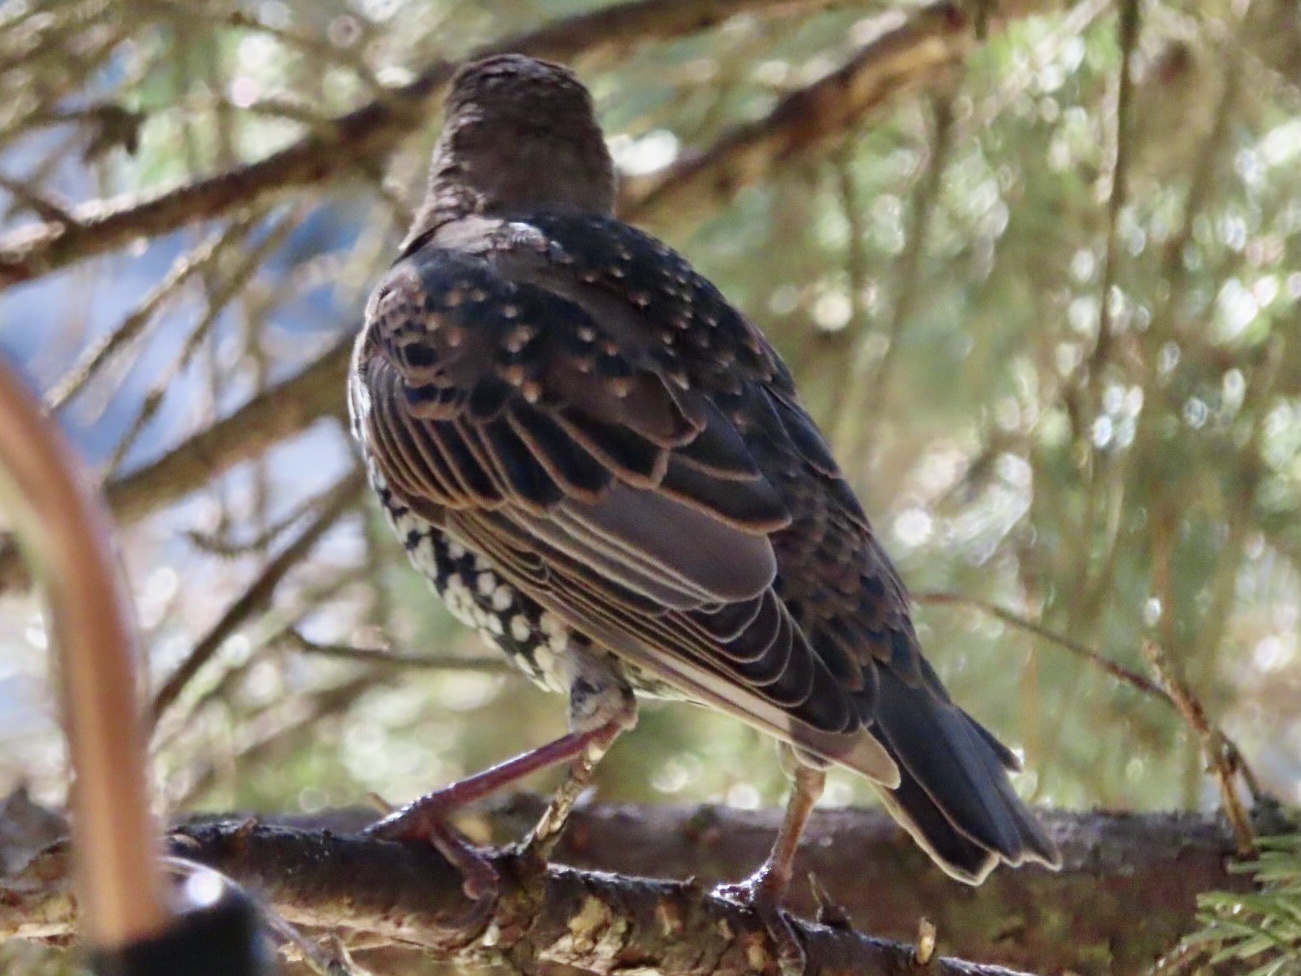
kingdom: Animalia
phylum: Chordata
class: Aves
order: Passeriformes
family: Sturnidae
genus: Sturnus
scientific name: Sturnus vulgaris
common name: Common starling
